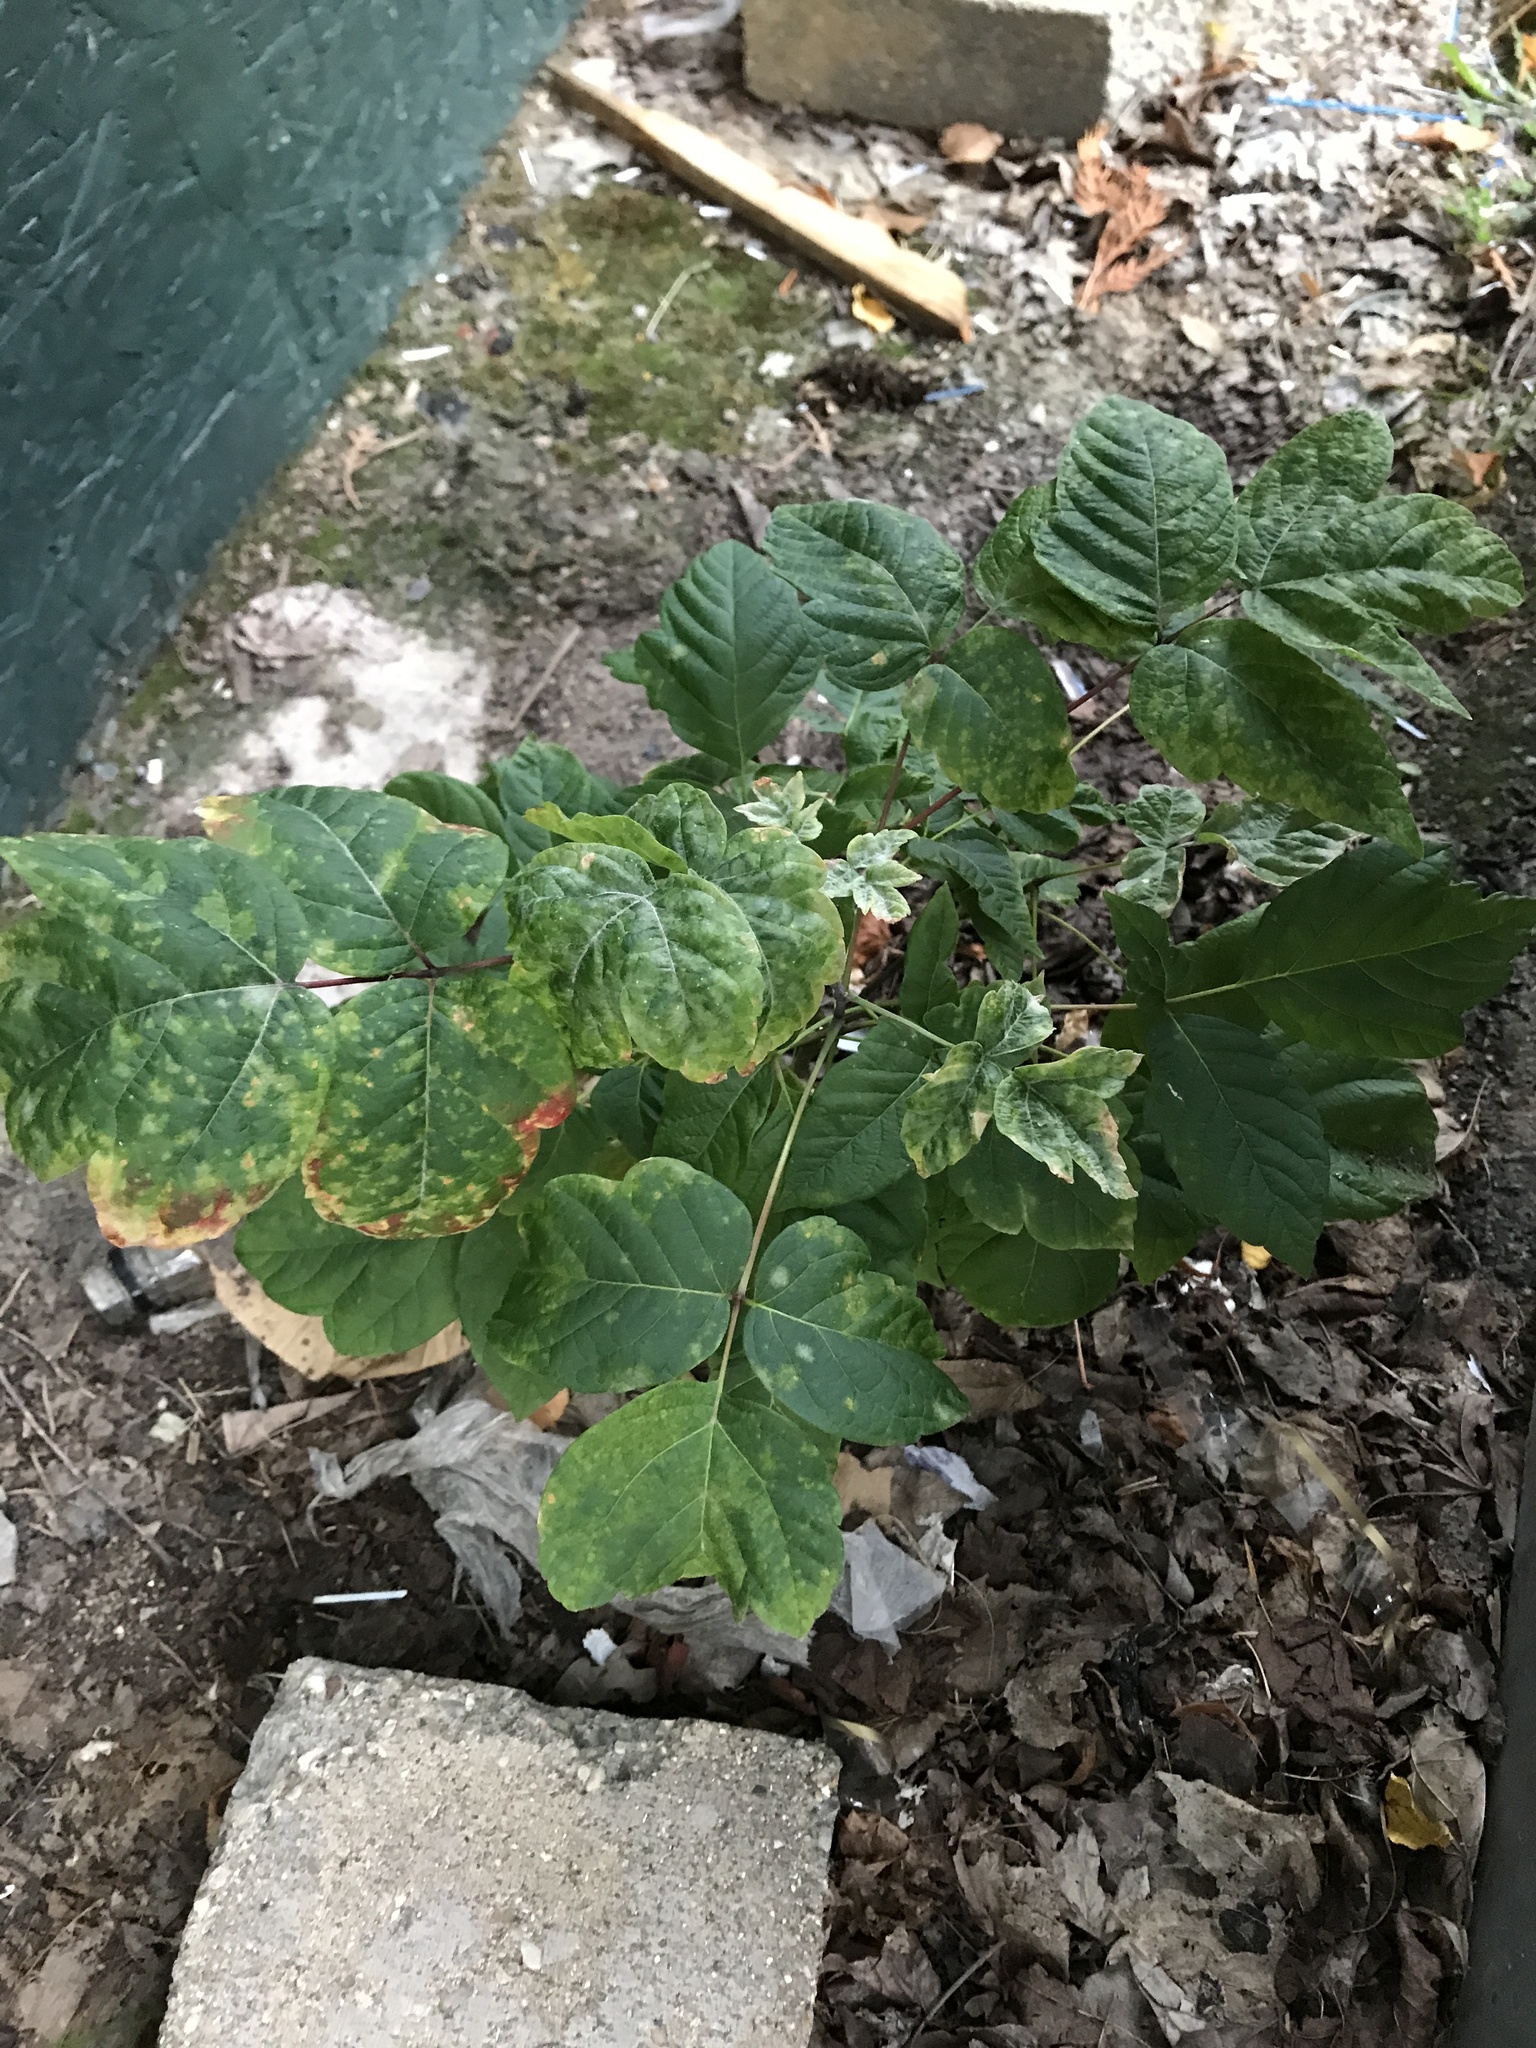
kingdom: Plantae
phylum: Tracheophyta
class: Magnoliopsida
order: Sapindales
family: Sapindaceae
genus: Acer
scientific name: Acer negundo
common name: Ashleaf maple
